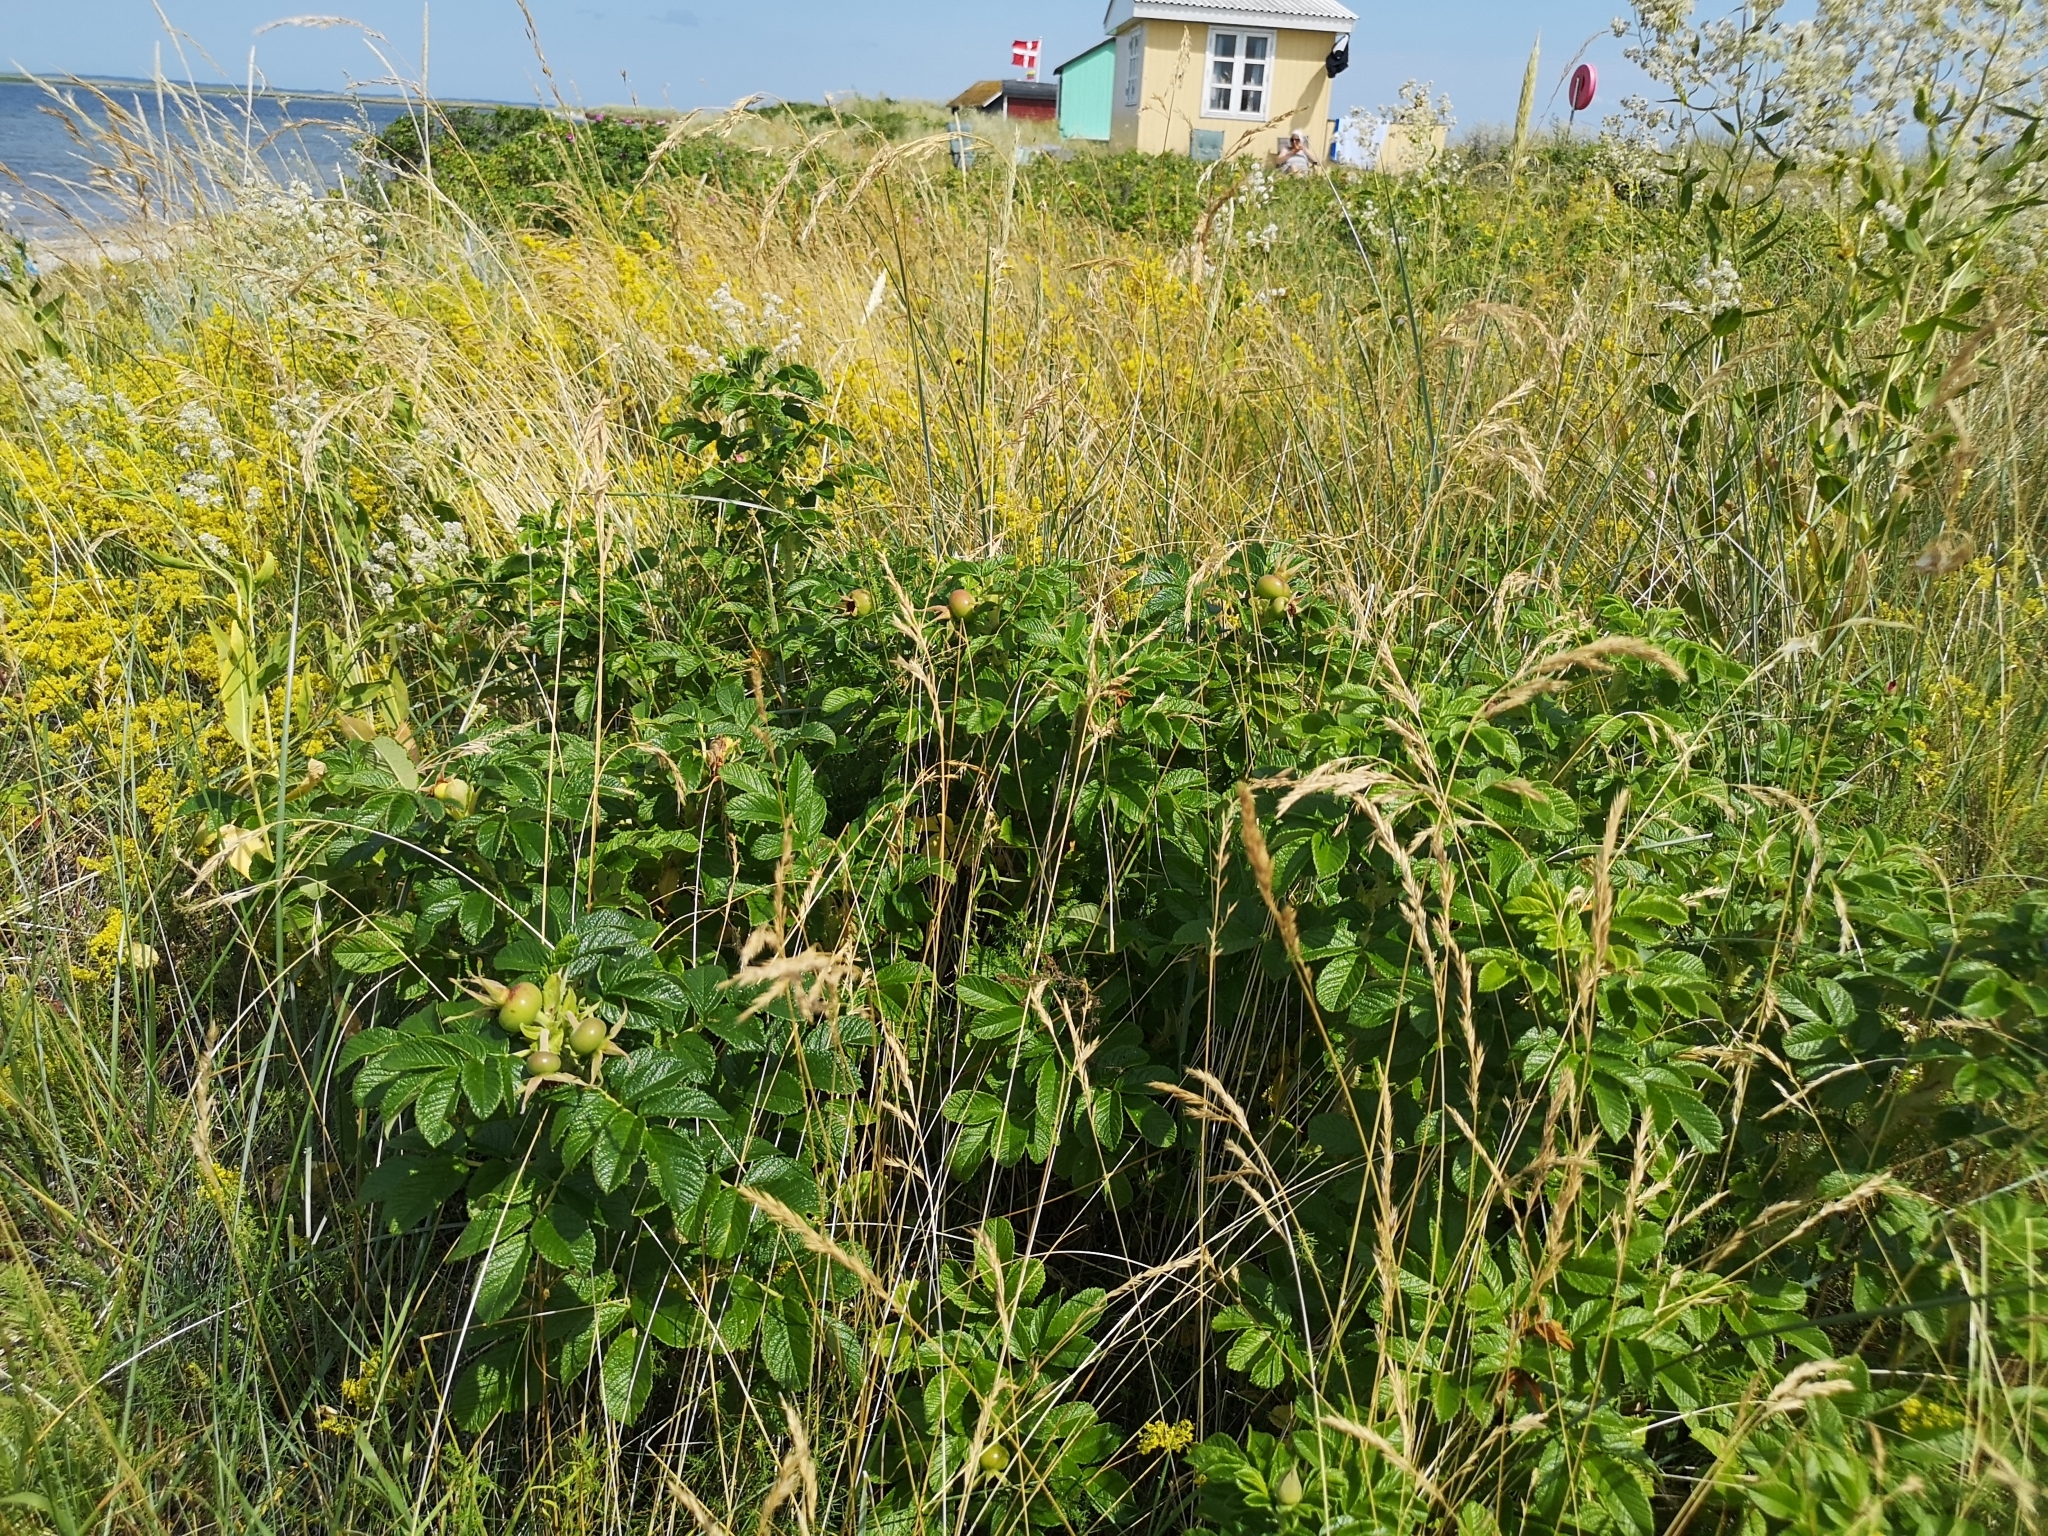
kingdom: Plantae
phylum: Tracheophyta
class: Magnoliopsida
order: Rosales
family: Rosaceae
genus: Rosa
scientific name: Rosa rugosa
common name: Japanese rose
